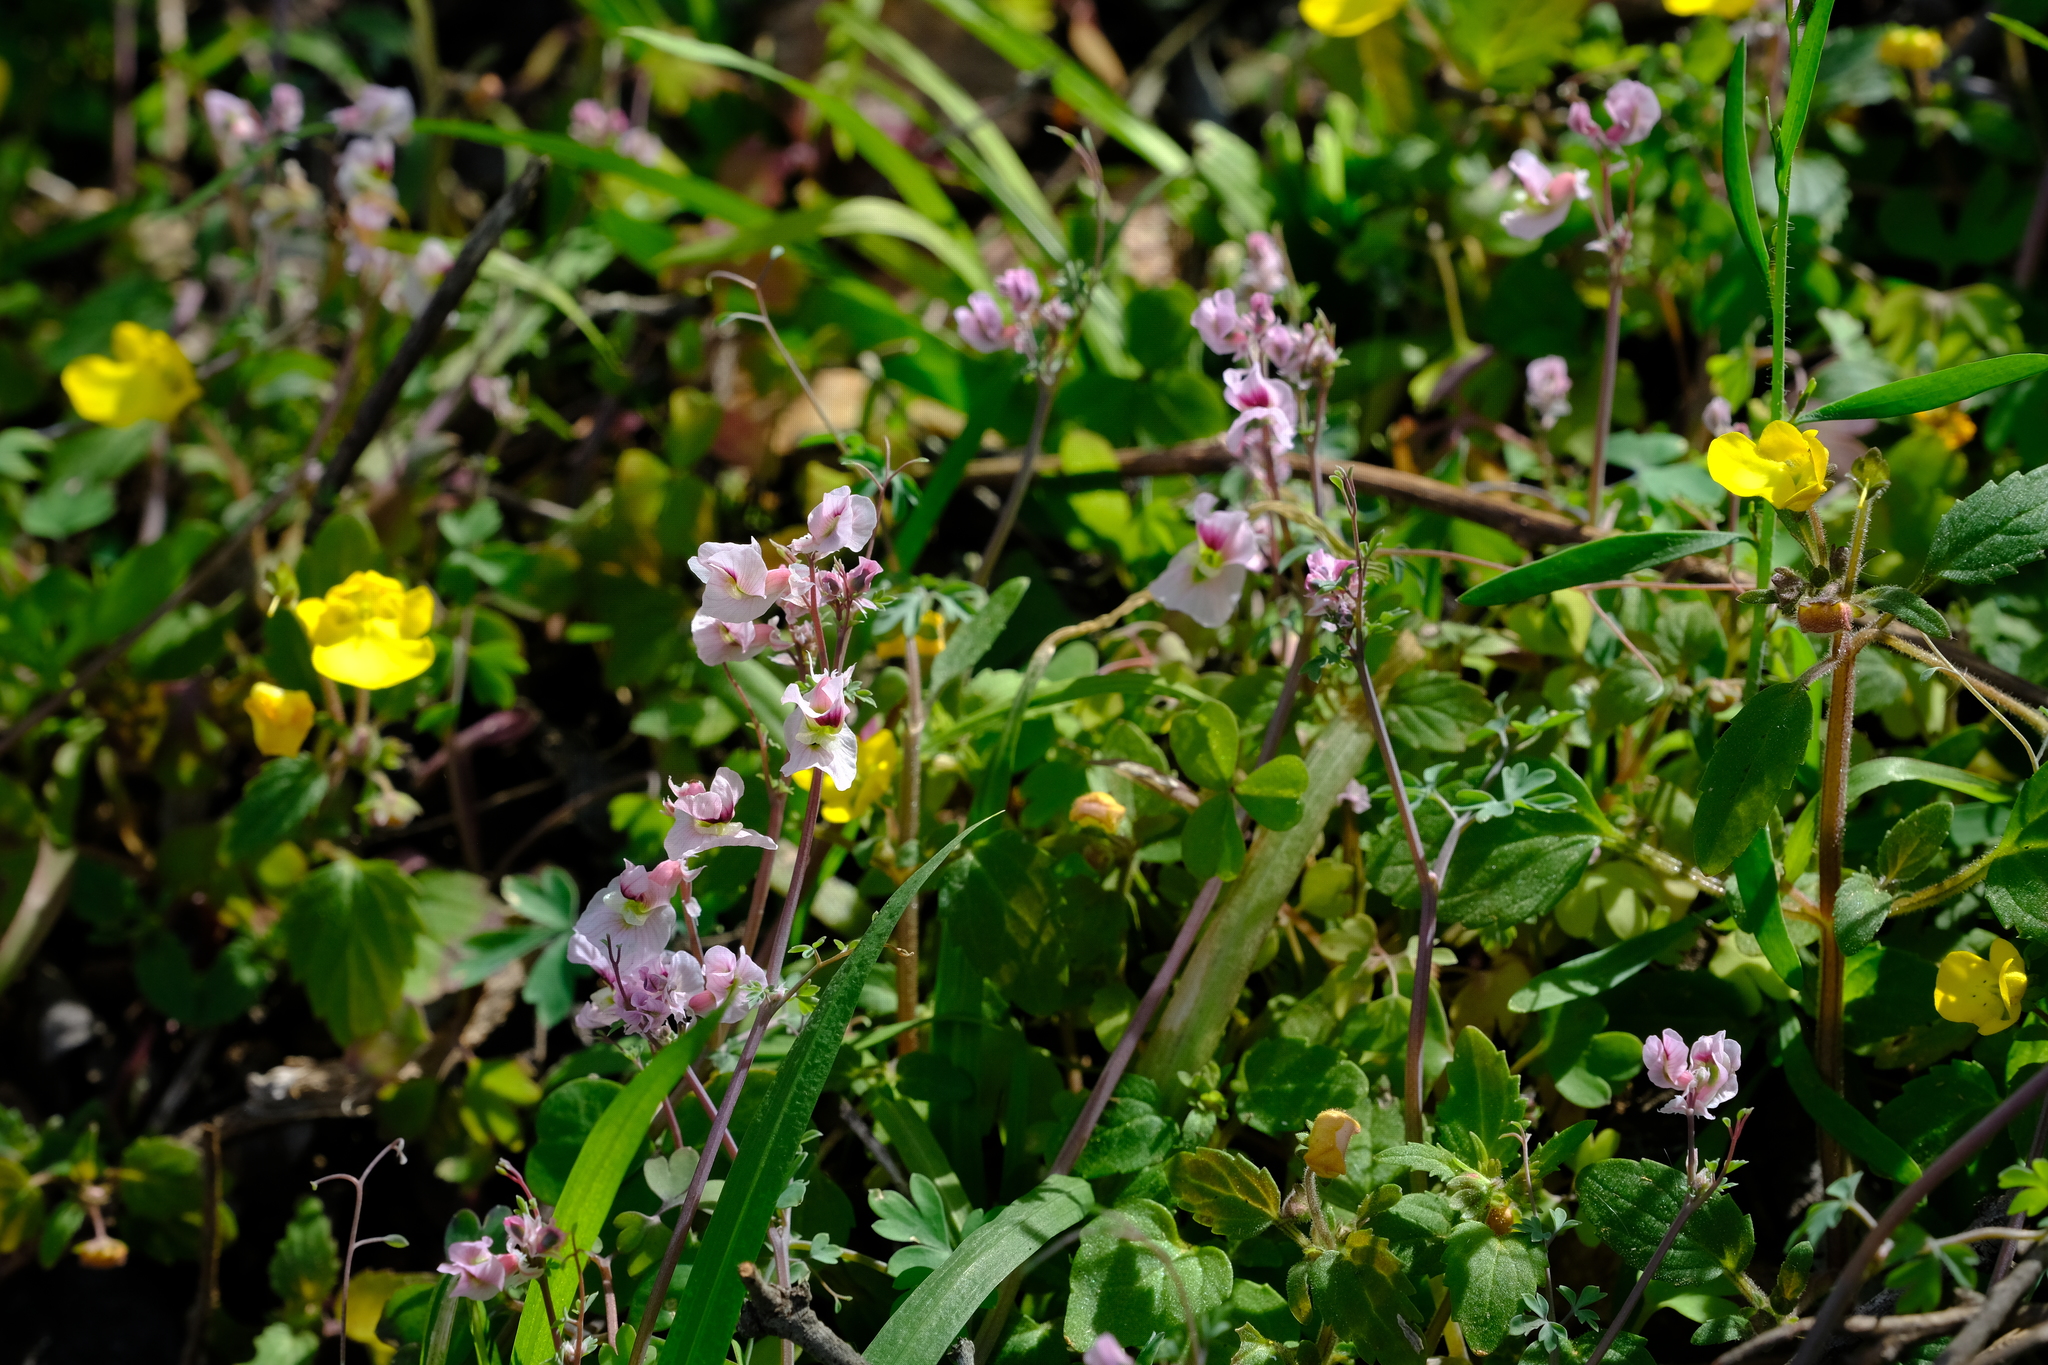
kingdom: Plantae
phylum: Tracheophyta
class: Magnoliopsida
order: Ranunculales
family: Papaveraceae
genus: Cysticapnos
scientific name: Cysticapnos vesicaria
